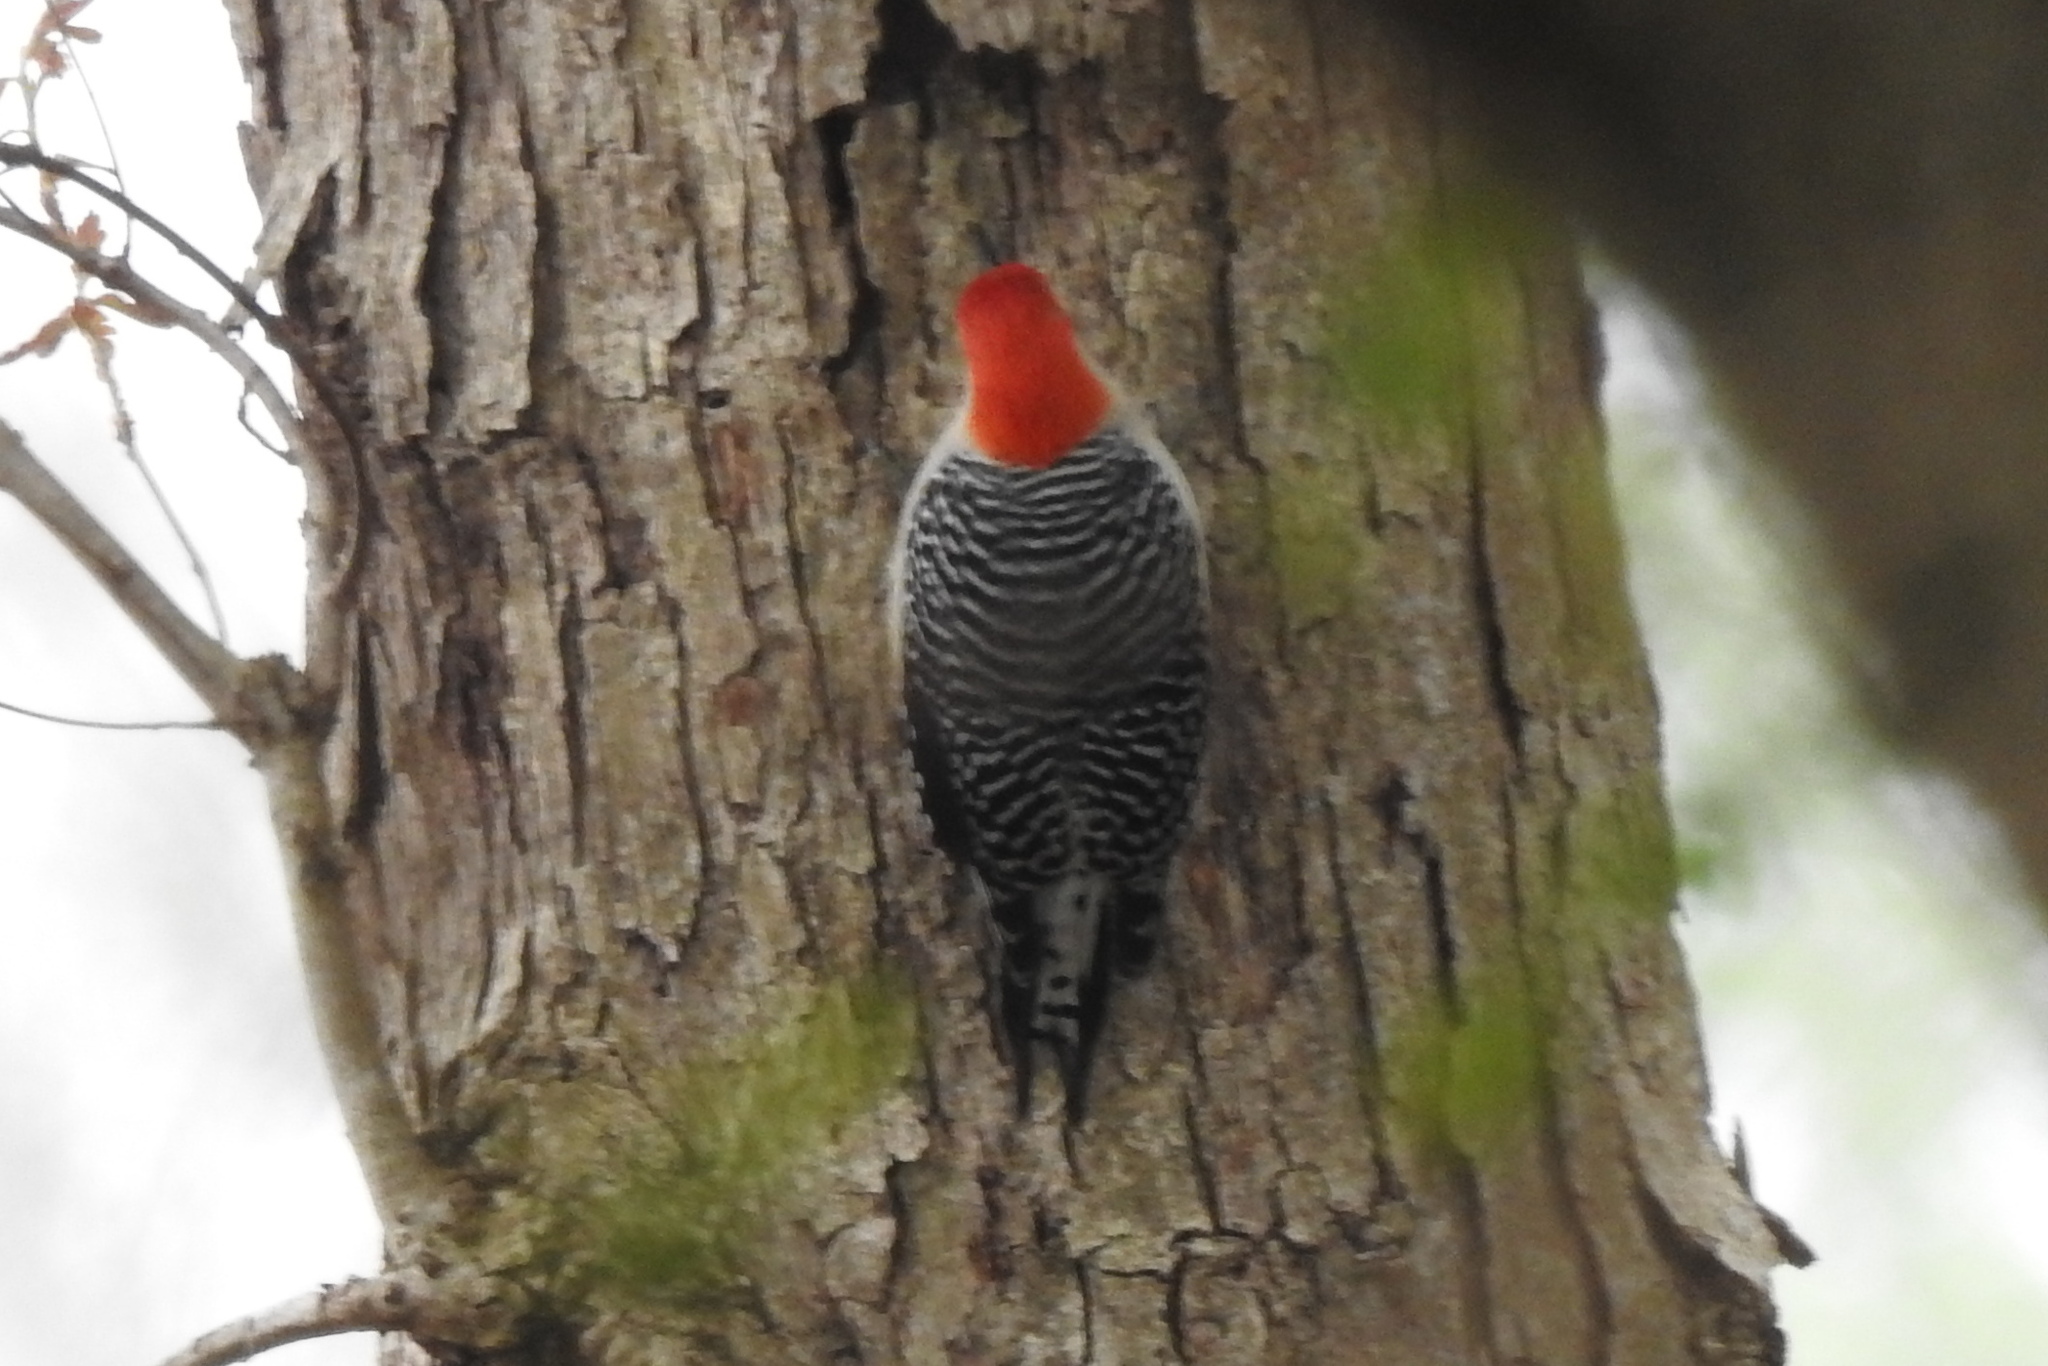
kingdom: Animalia
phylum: Chordata
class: Aves
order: Piciformes
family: Picidae
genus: Melanerpes
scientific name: Melanerpes carolinus
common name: Red-bellied woodpecker
